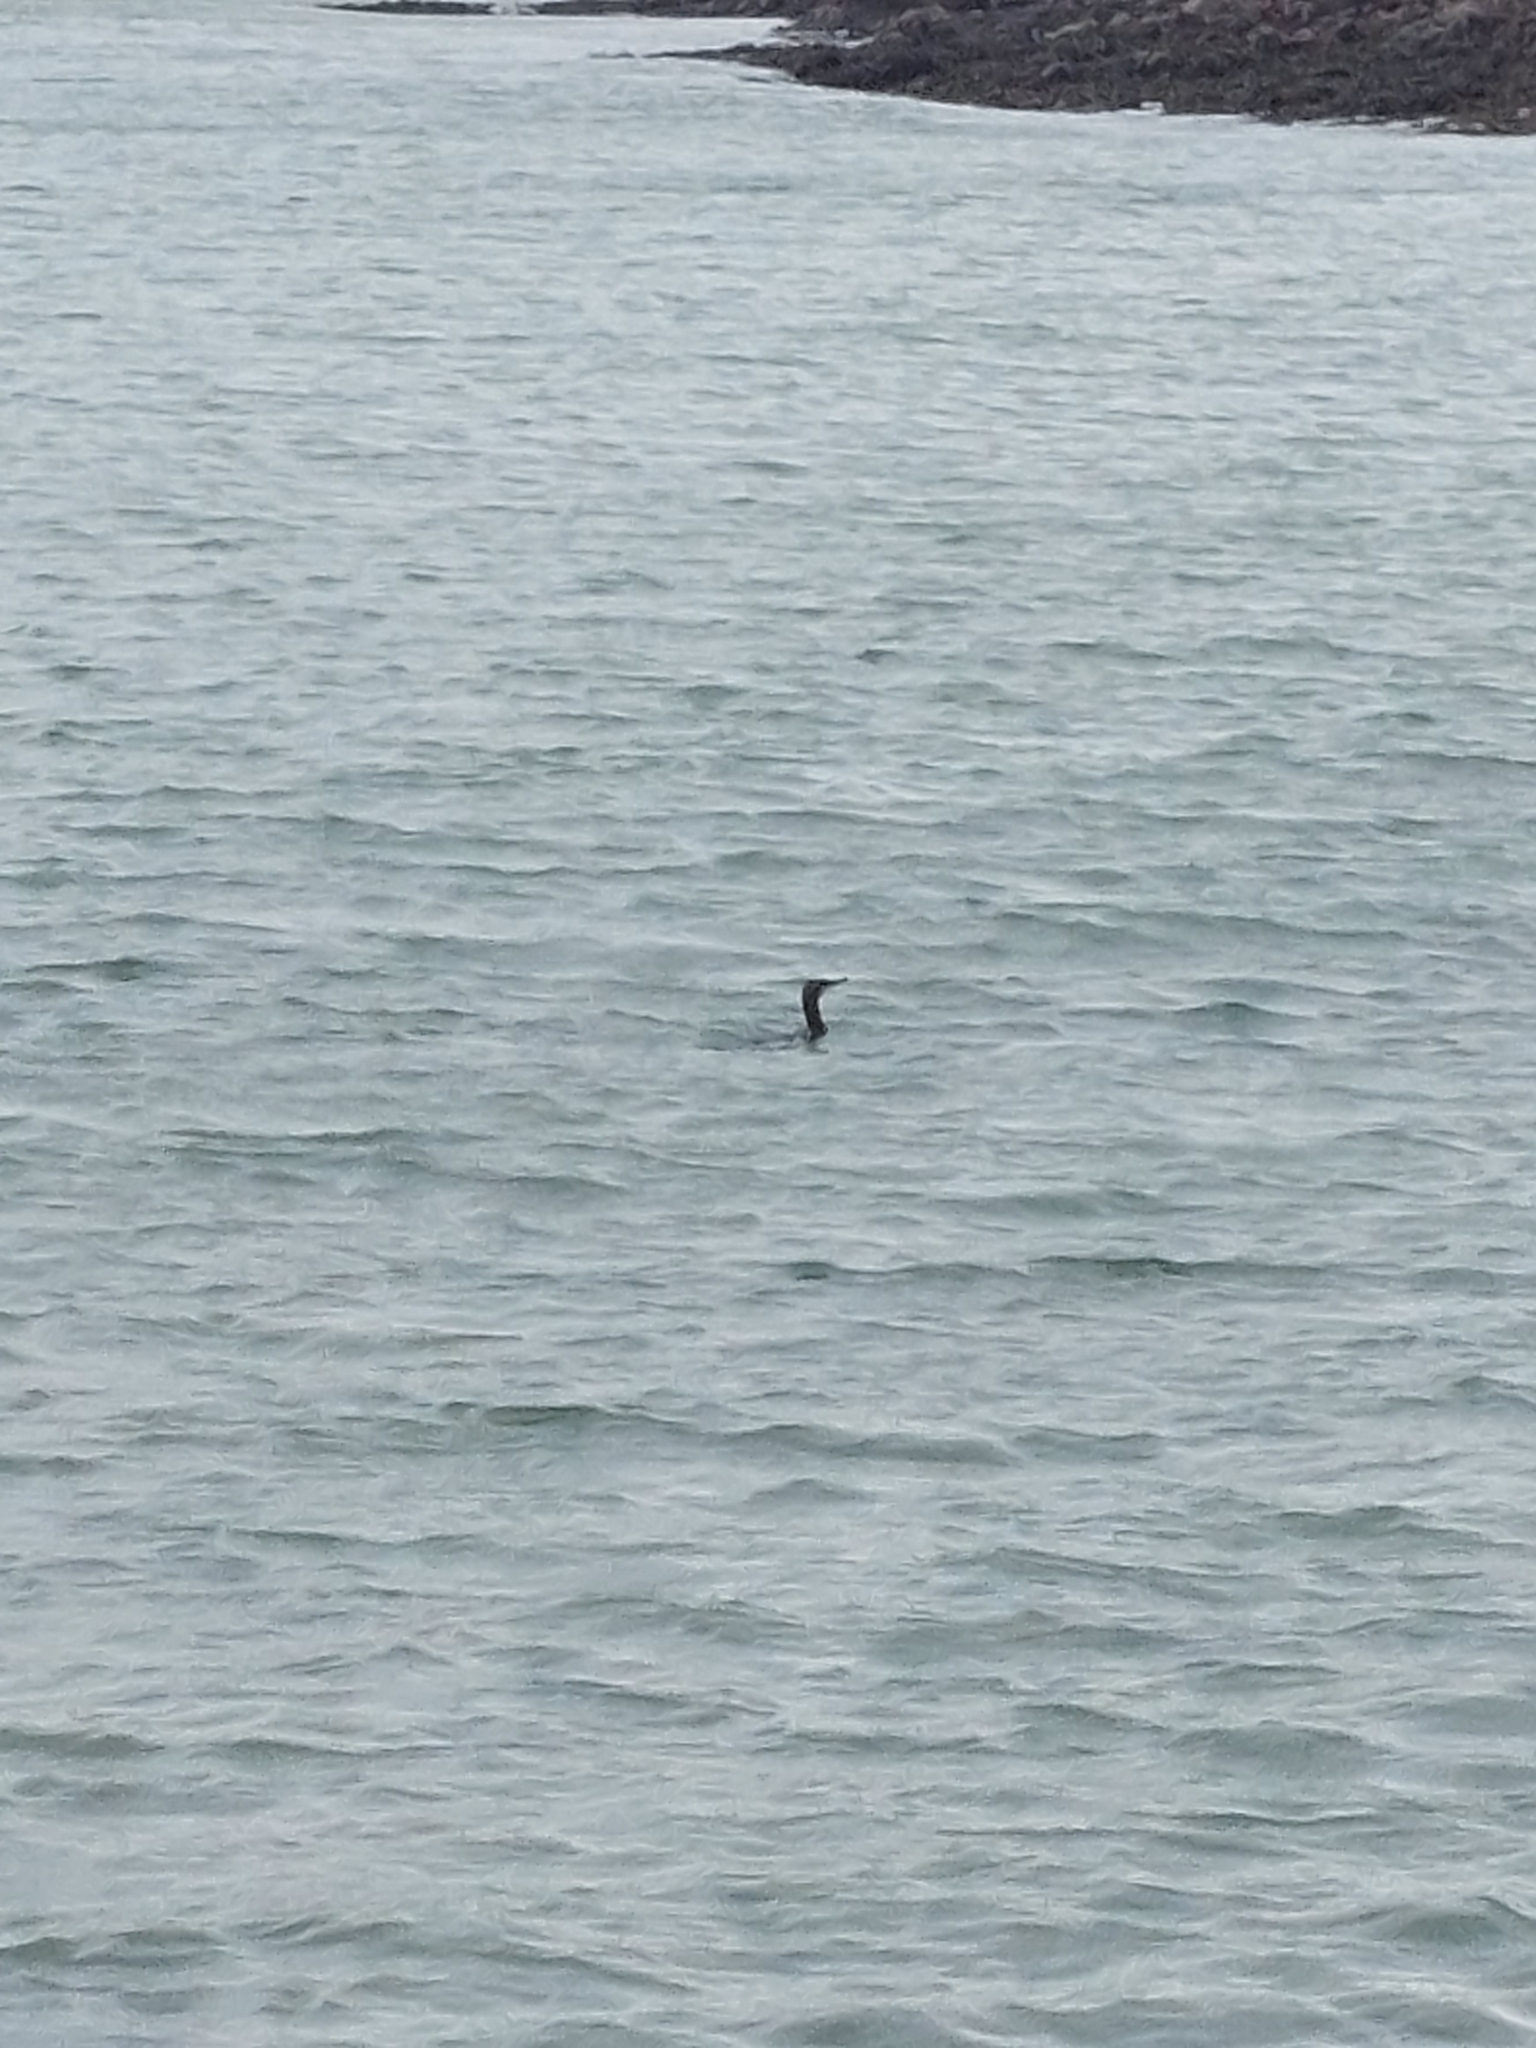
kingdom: Animalia
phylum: Chordata
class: Aves
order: Suliformes
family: Phalacrocoracidae
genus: Phalacrocorax
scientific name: Phalacrocorax carbo
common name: Great cormorant
